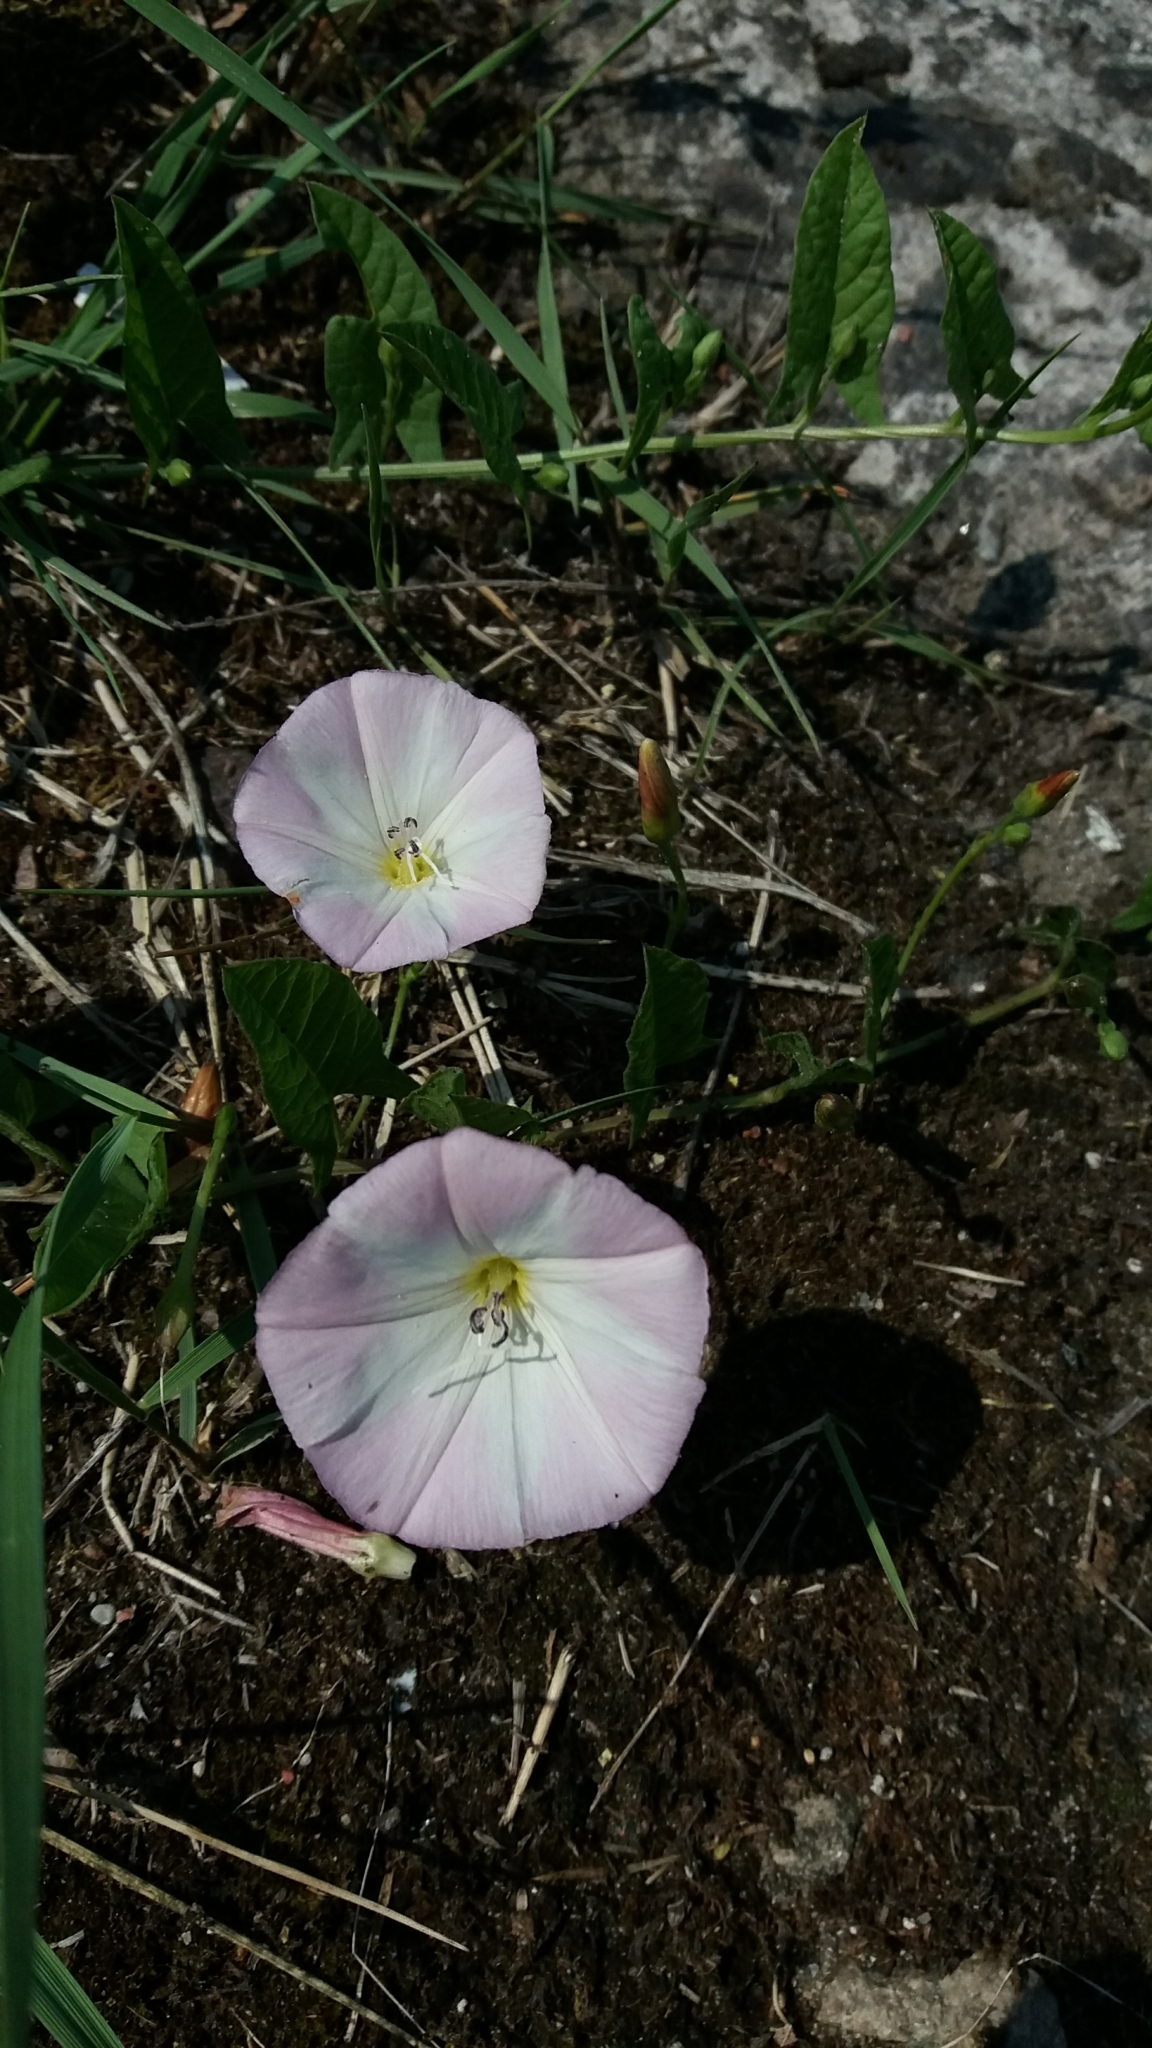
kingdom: Plantae
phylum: Tracheophyta
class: Magnoliopsida
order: Solanales
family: Convolvulaceae
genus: Convolvulus
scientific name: Convolvulus arvensis
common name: Field bindweed
